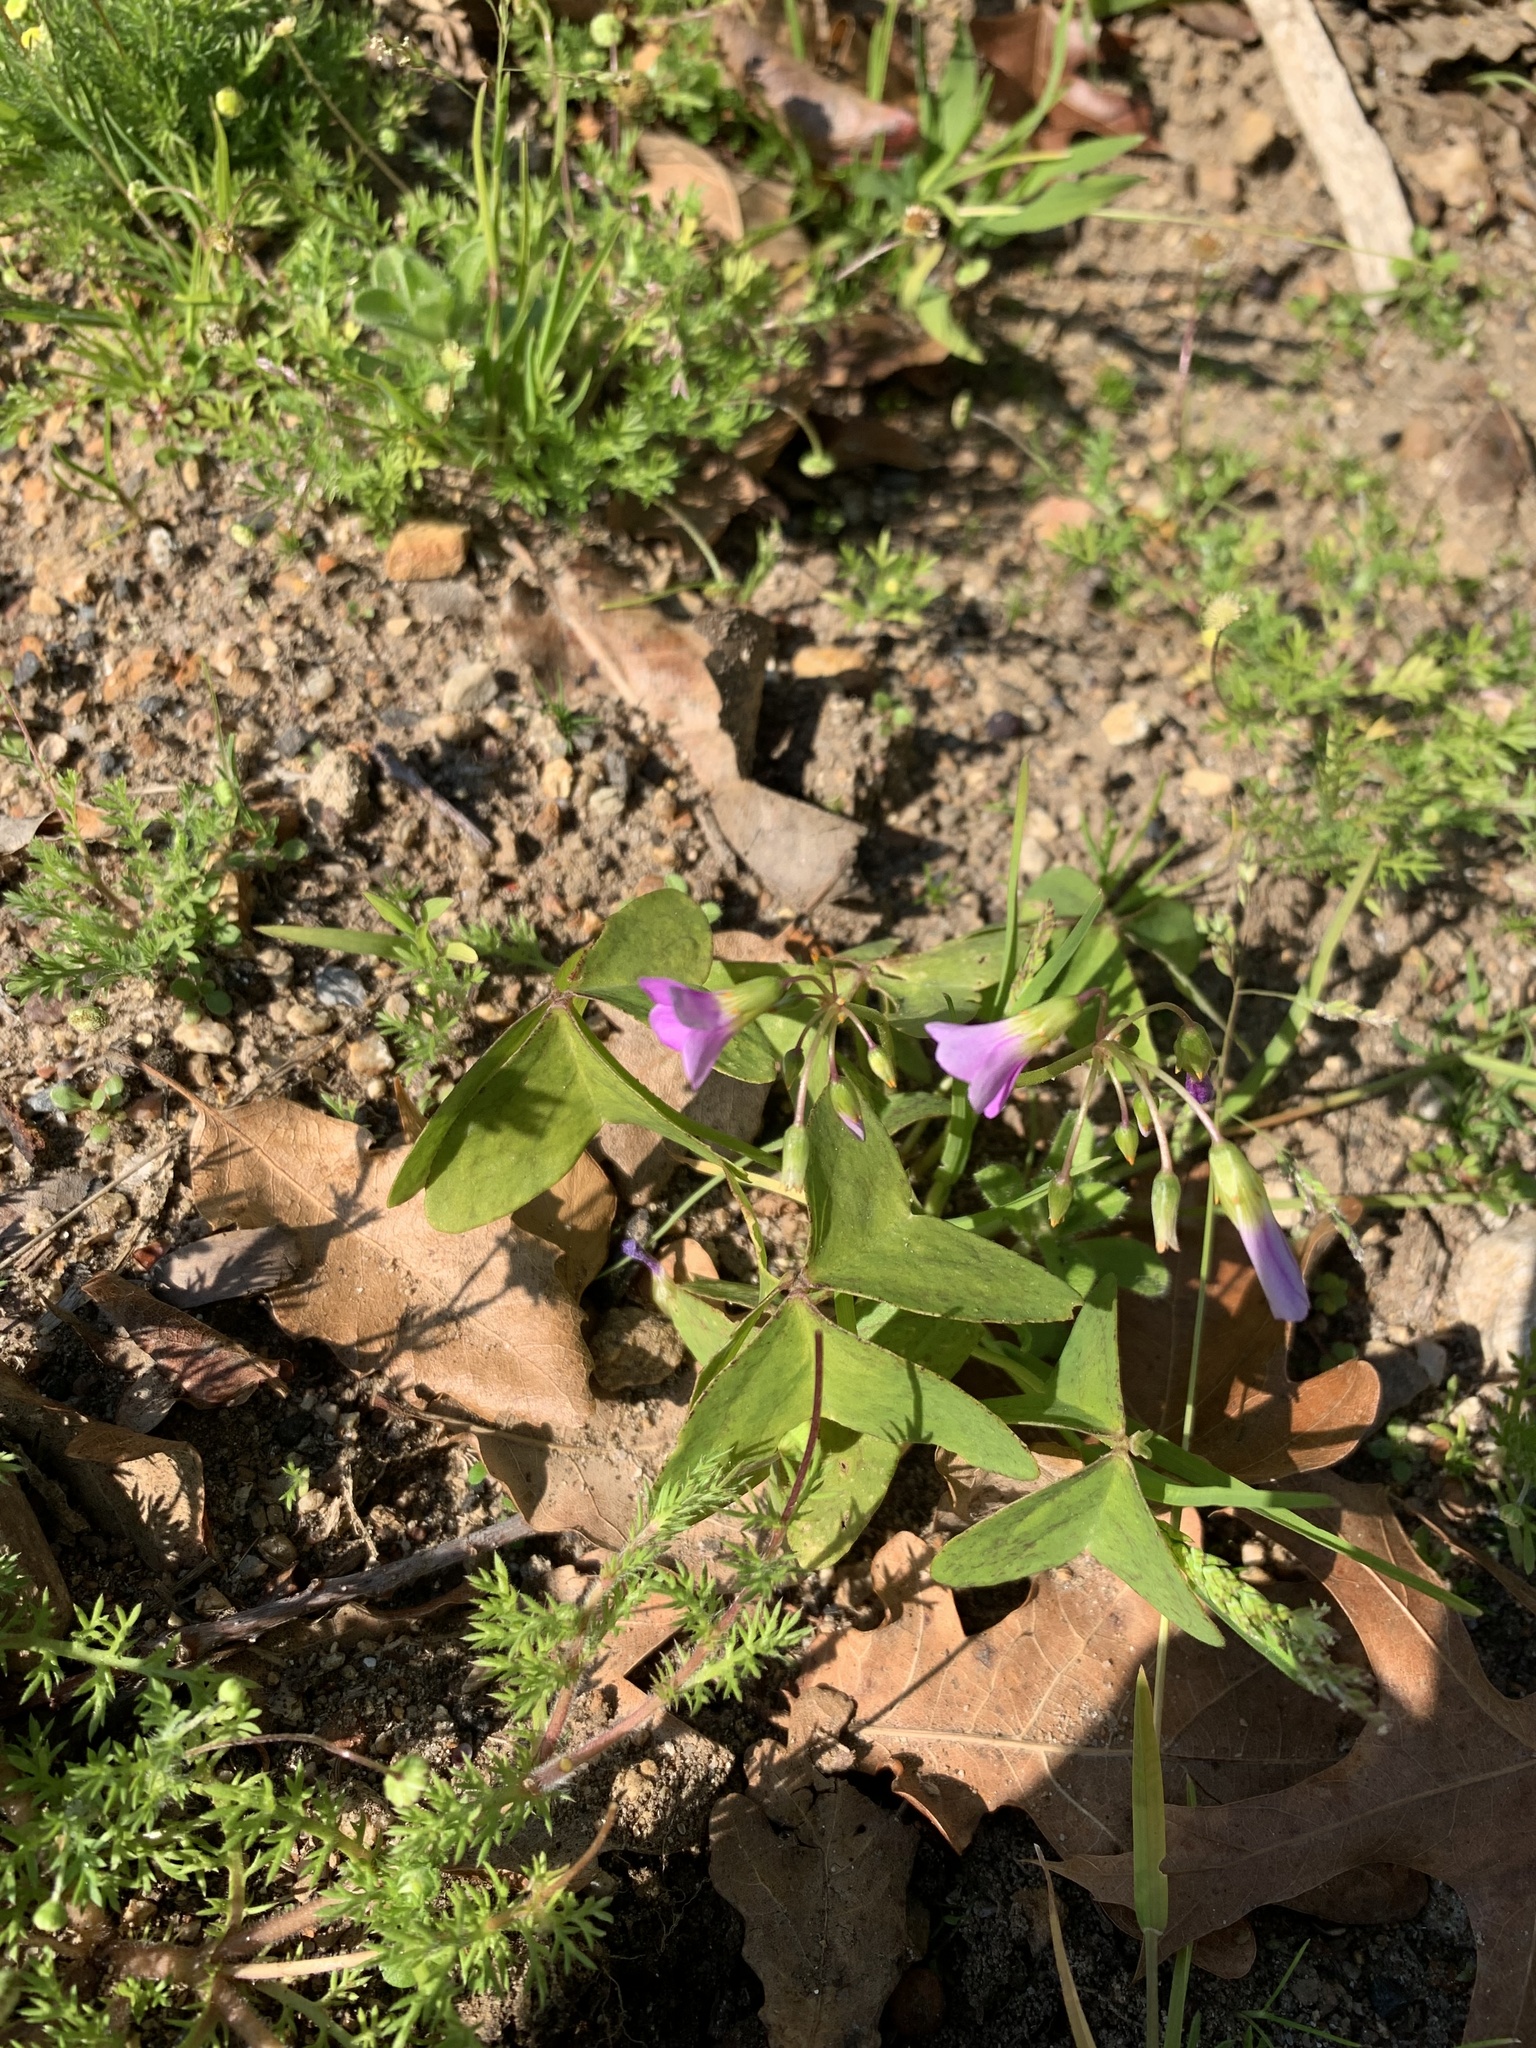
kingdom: Plantae
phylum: Tracheophyta
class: Magnoliopsida
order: Oxalidales
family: Oxalidaceae
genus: Oxalis
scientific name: Oxalis latifolia
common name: Garden pink-sorrel
